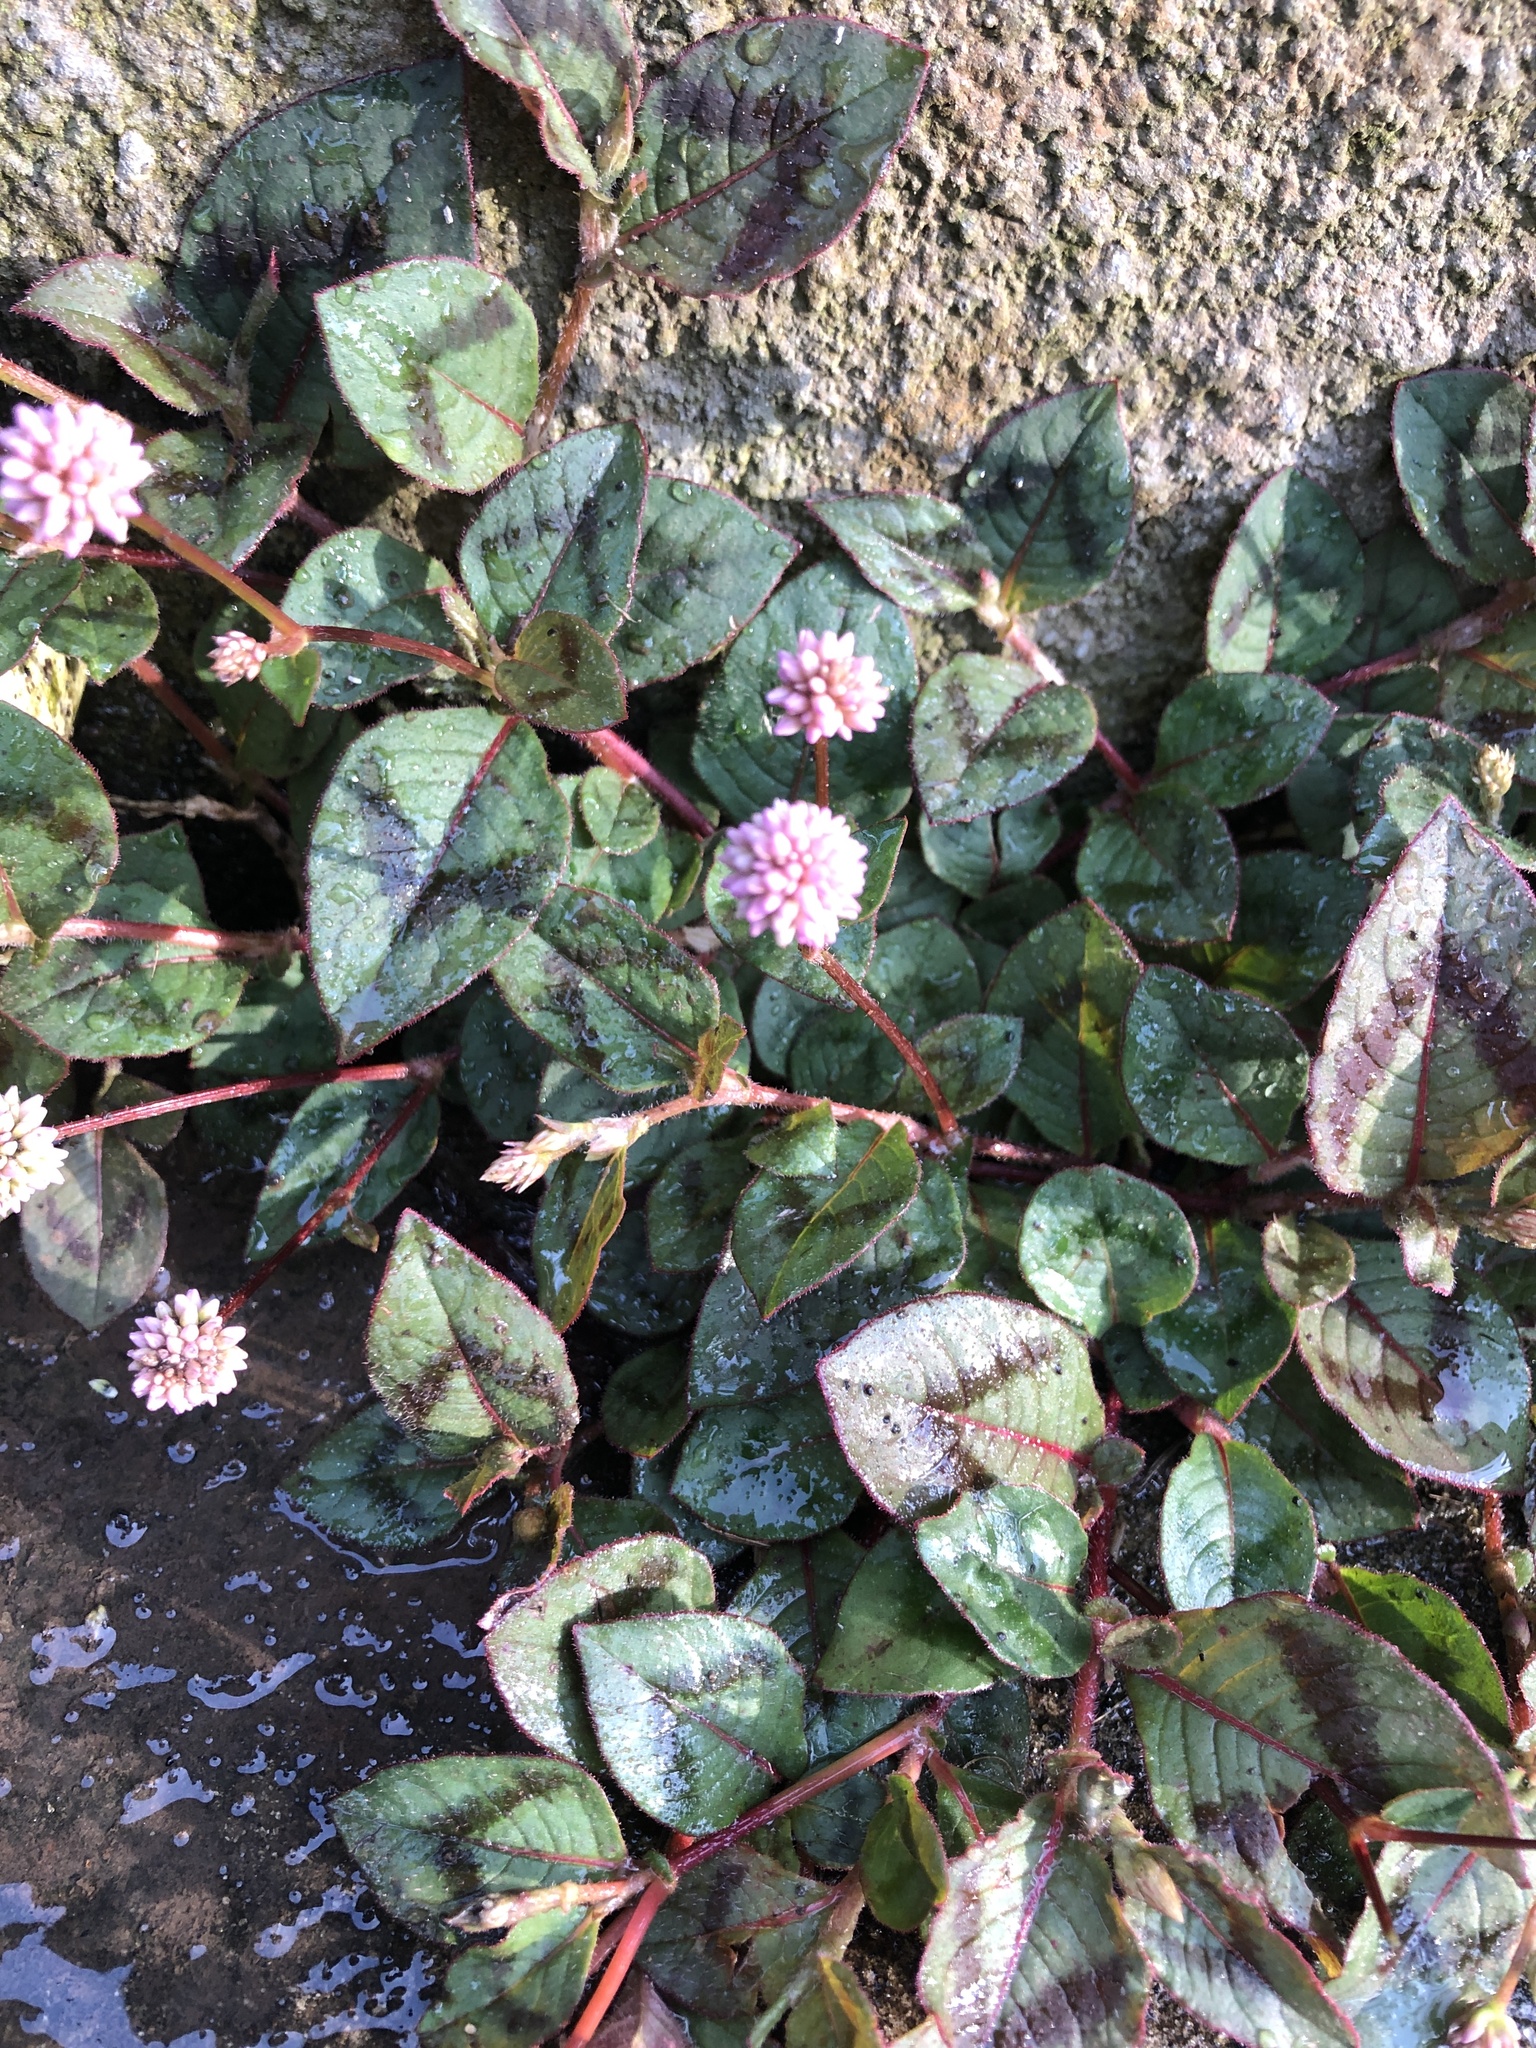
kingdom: Plantae
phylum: Tracheophyta
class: Magnoliopsida
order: Caryophyllales
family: Polygonaceae
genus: Persicaria
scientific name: Persicaria capitata
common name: Pinkhead smartweed
